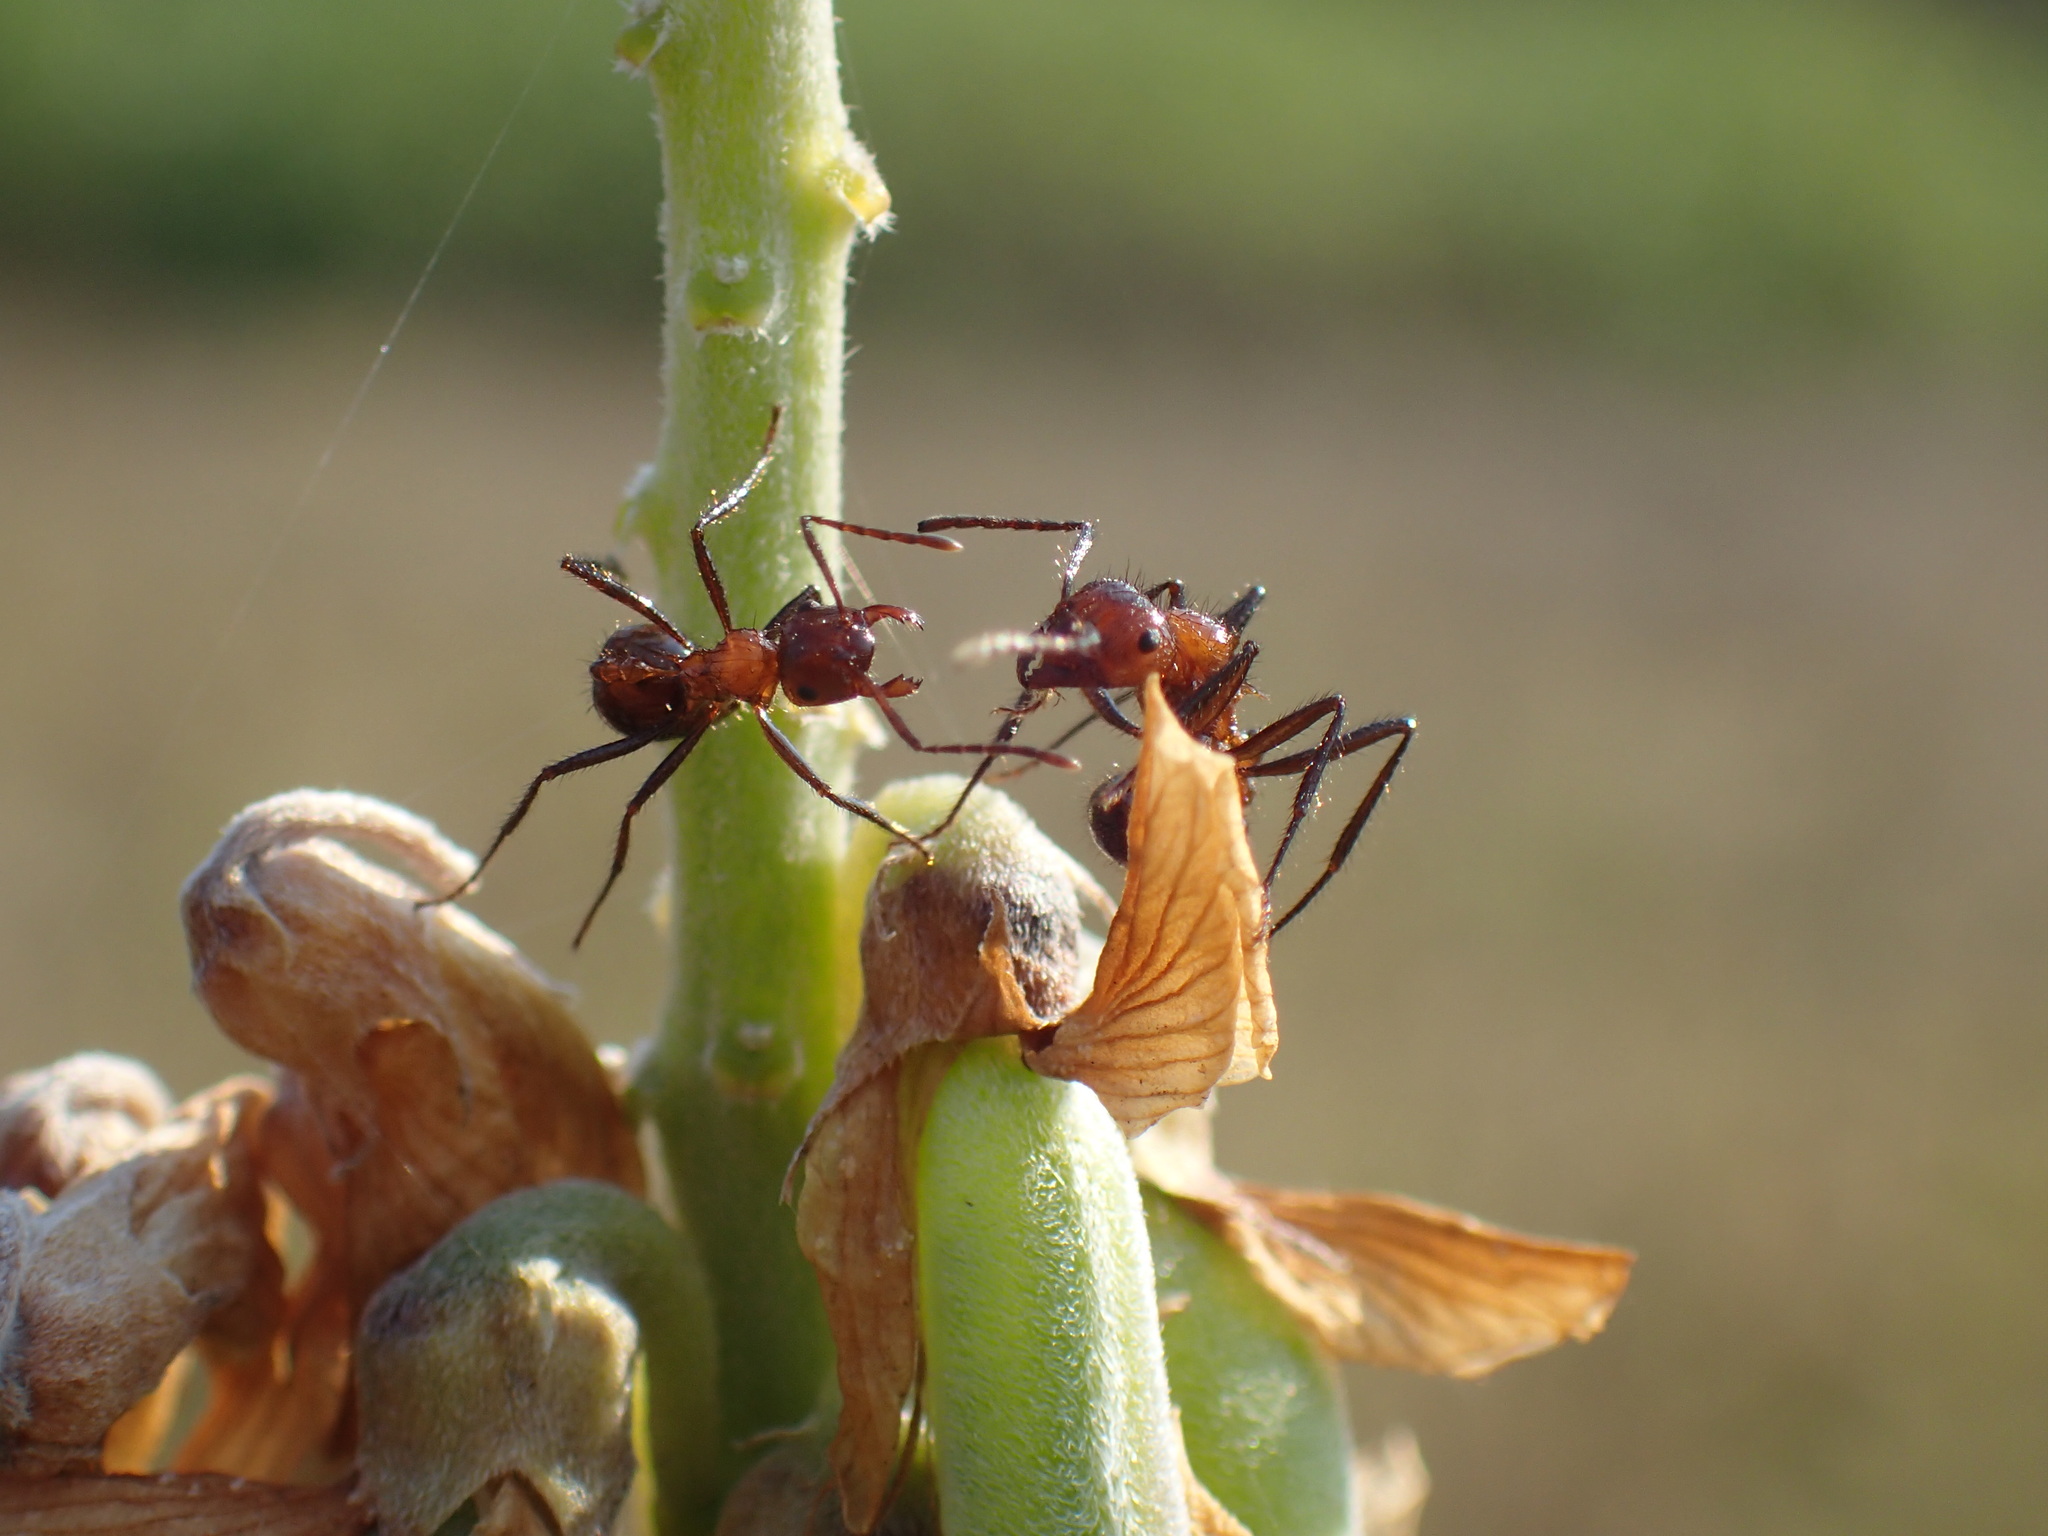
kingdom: Animalia
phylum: Arthropoda
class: Insecta
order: Hymenoptera
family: Formicidae
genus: Myrmicaria
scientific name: Myrmicaria natalensis
